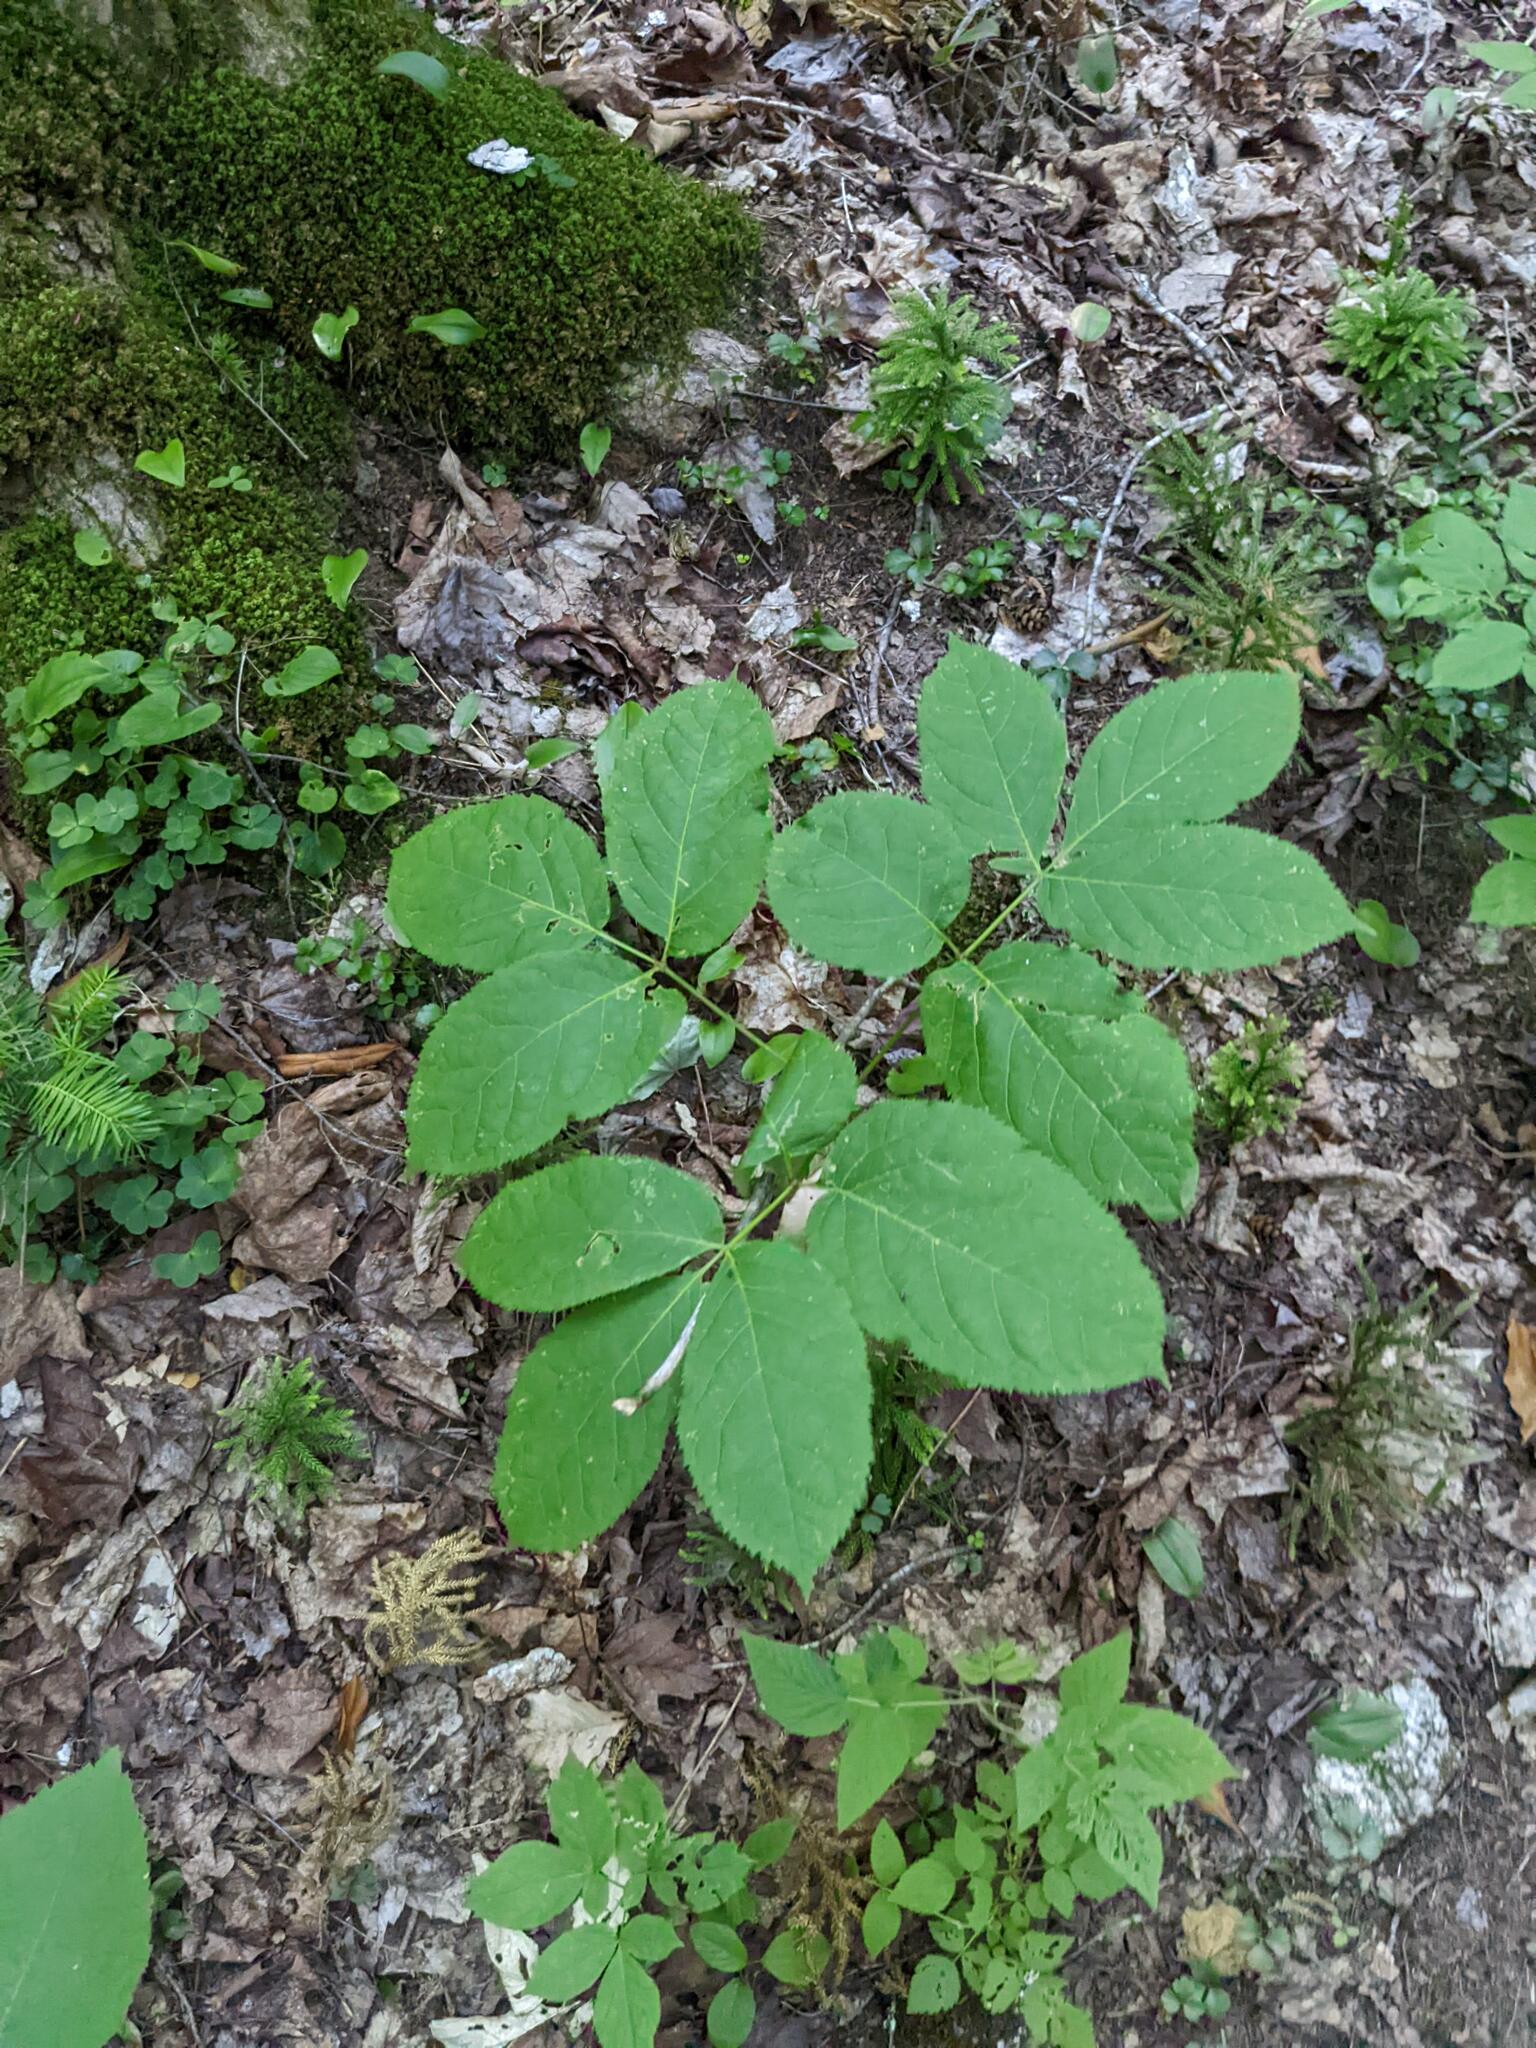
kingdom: Plantae
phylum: Tracheophyta
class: Magnoliopsida
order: Apiales
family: Araliaceae
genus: Aralia
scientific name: Aralia nudicaulis
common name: Wild sarsaparilla
